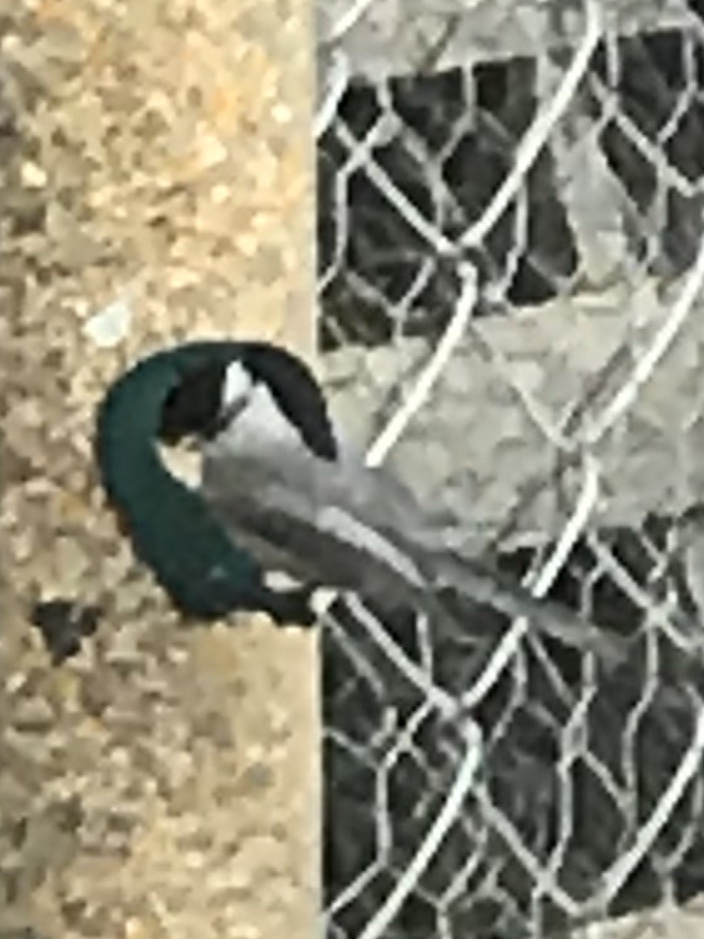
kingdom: Animalia
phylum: Chordata
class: Aves
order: Passeriformes
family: Paridae
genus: Poecile
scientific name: Poecile carolinensis
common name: Carolina chickadee
